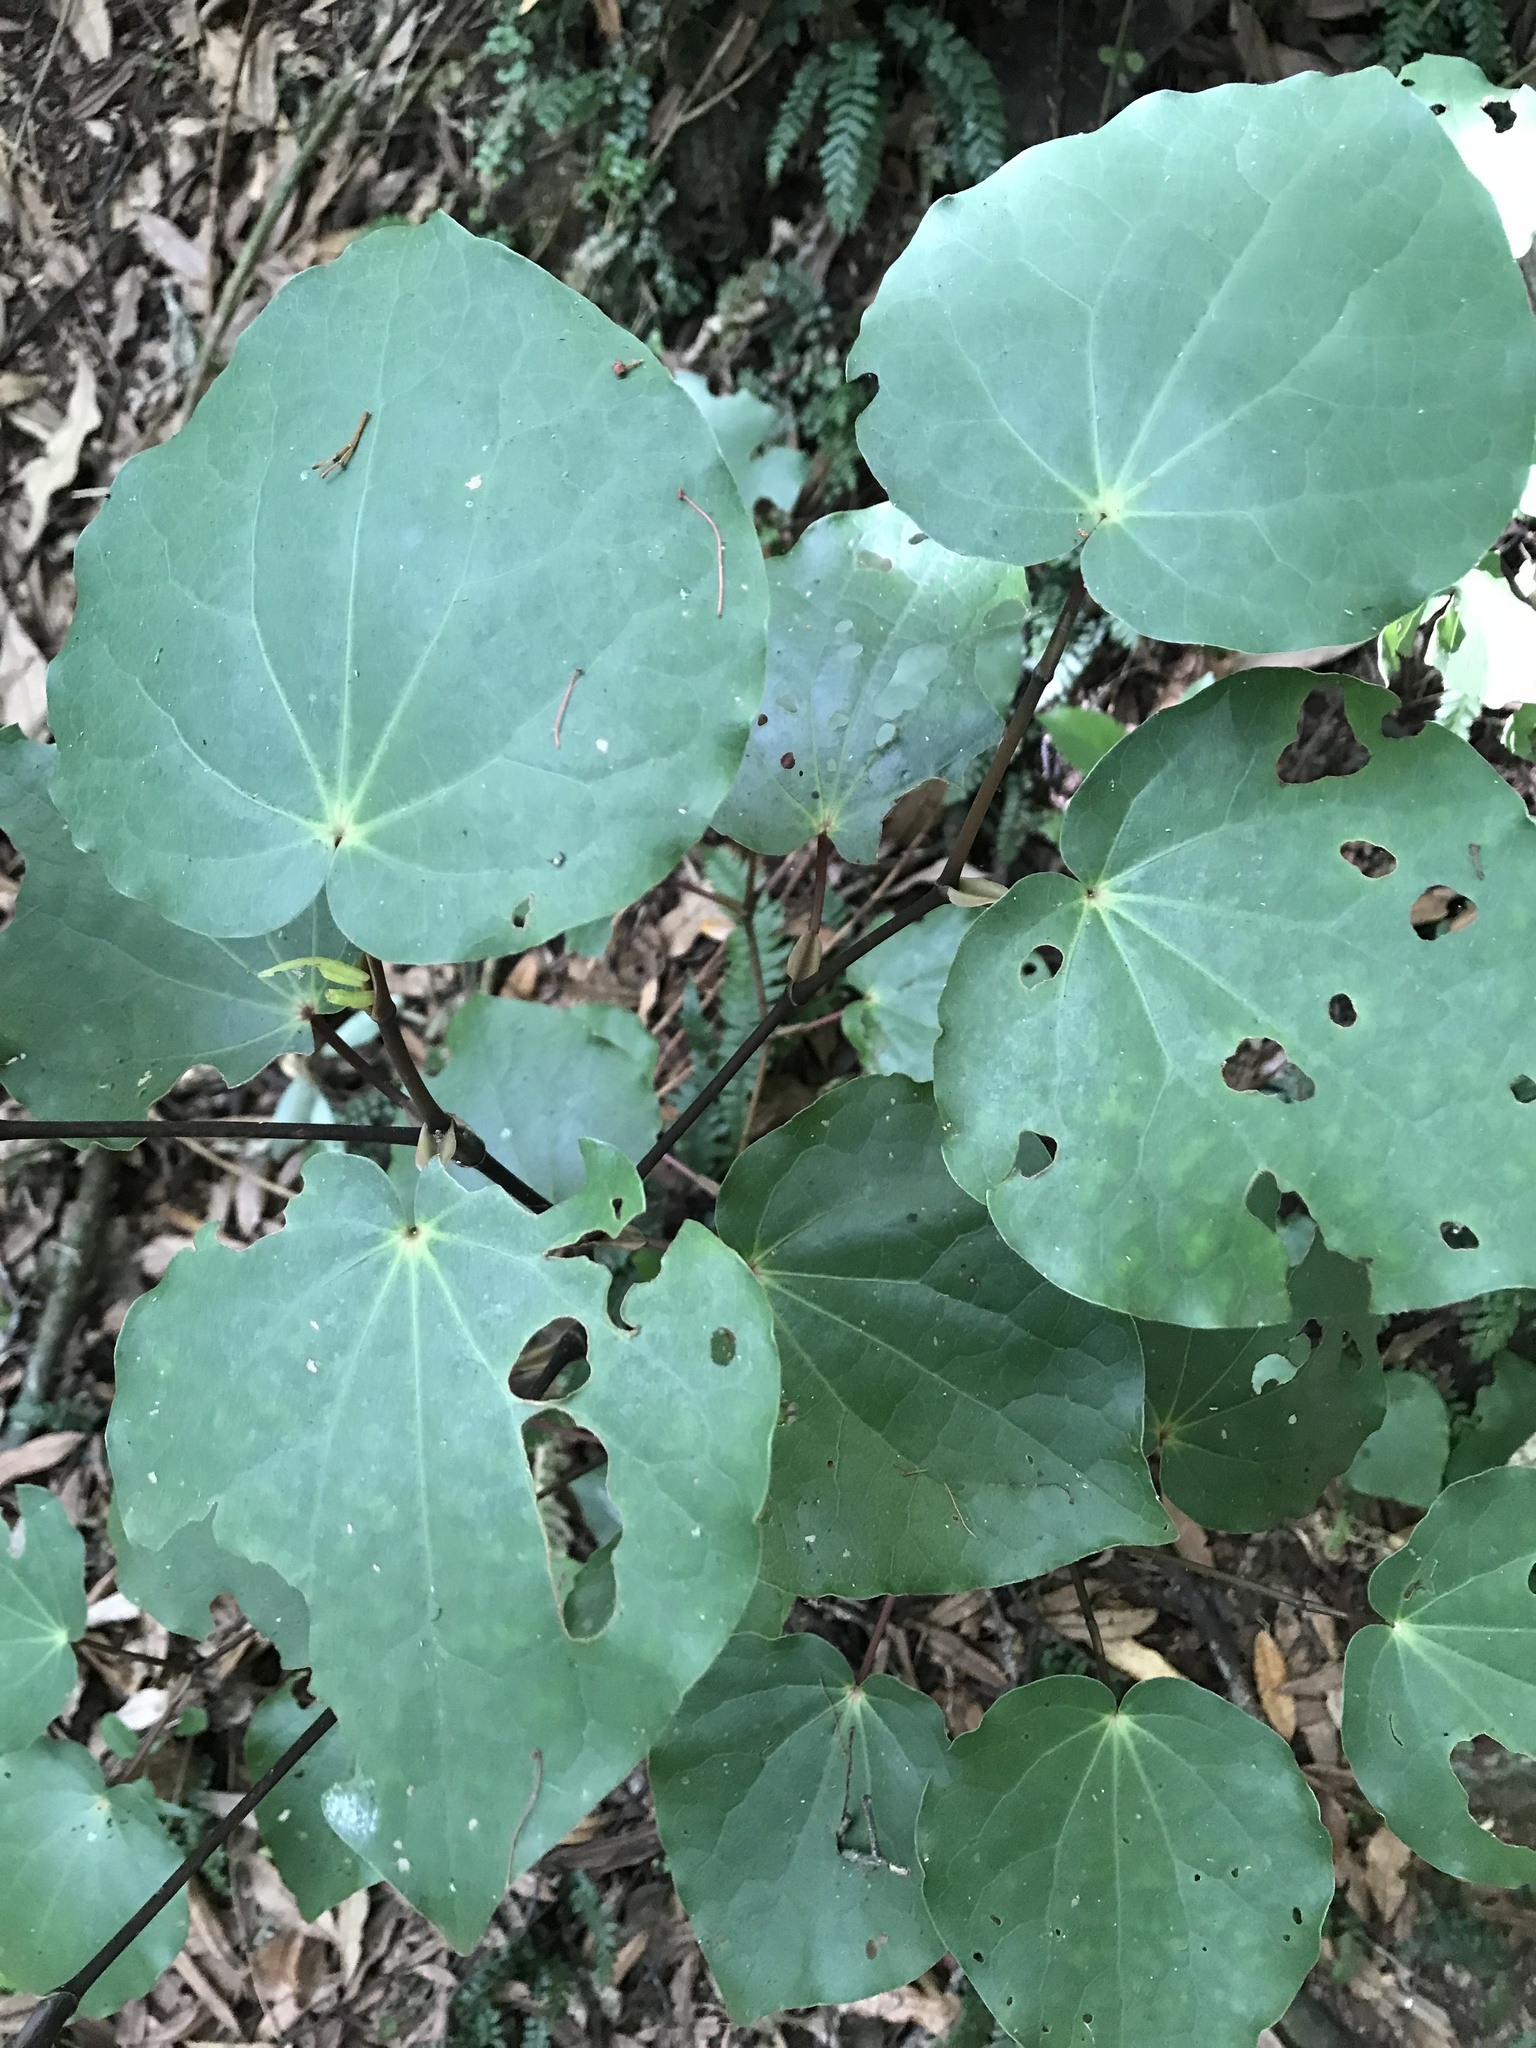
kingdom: Plantae
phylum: Tracheophyta
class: Magnoliopsida
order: Piperales
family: Piperaceae
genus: Macropiper
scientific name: Macropiper excelsum
